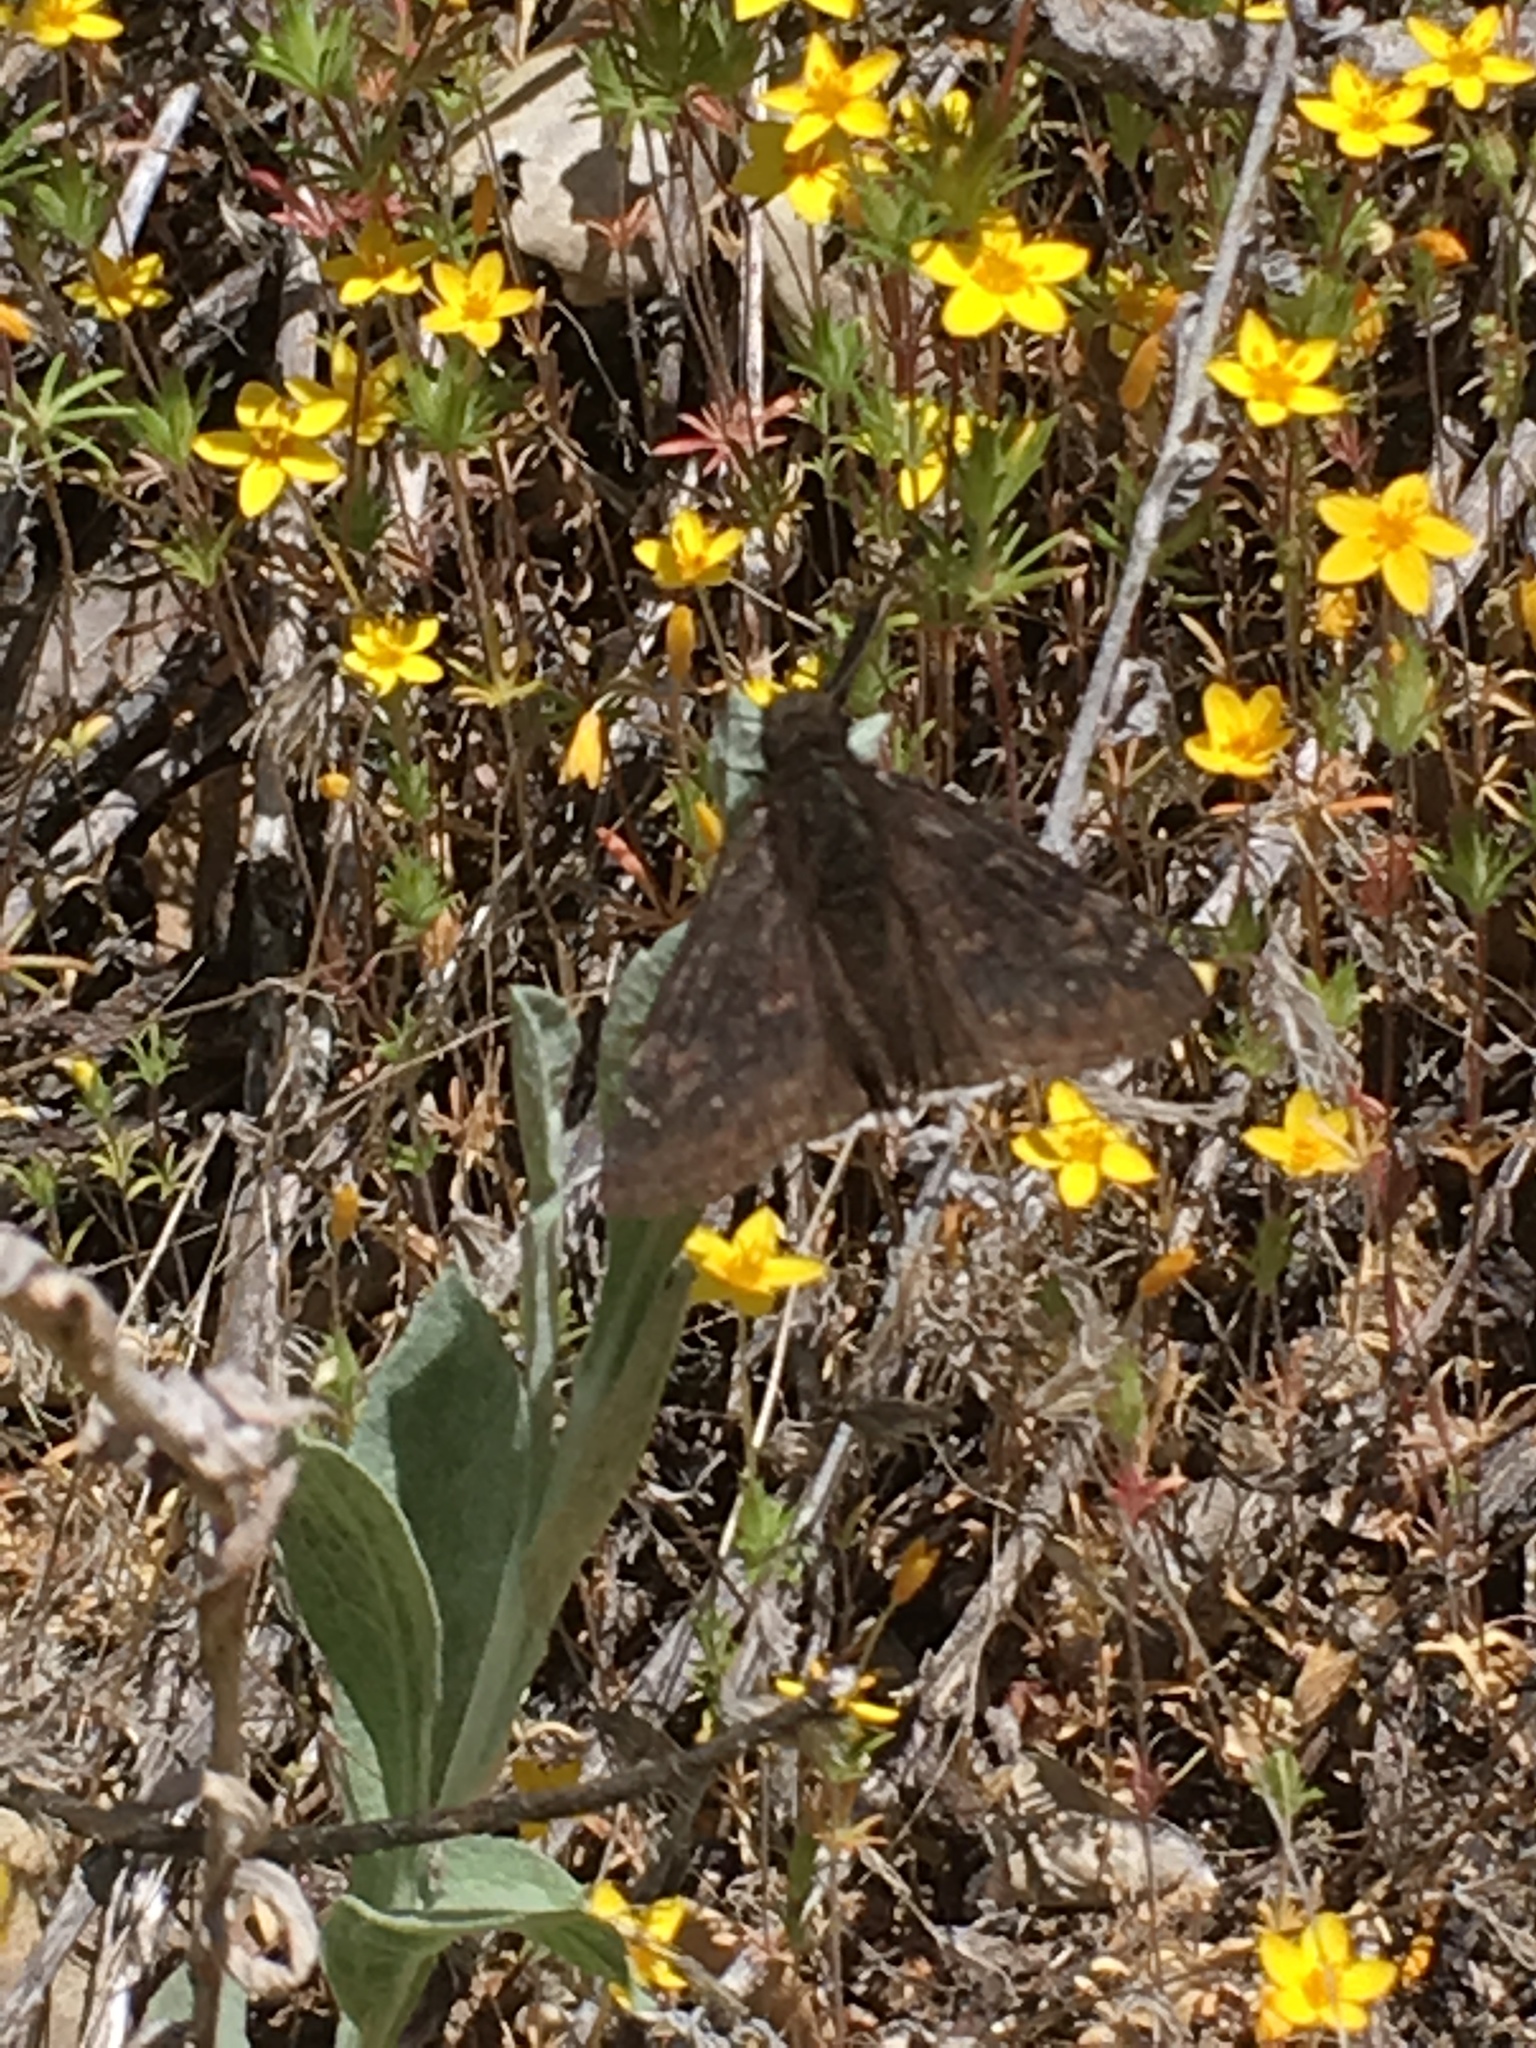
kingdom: Animalia
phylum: Arthropoda
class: Insecta
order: Lepidoptera
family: Hesperiidae
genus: Erynnis
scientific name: Erynnis funeralis
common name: Funereal duskywing
